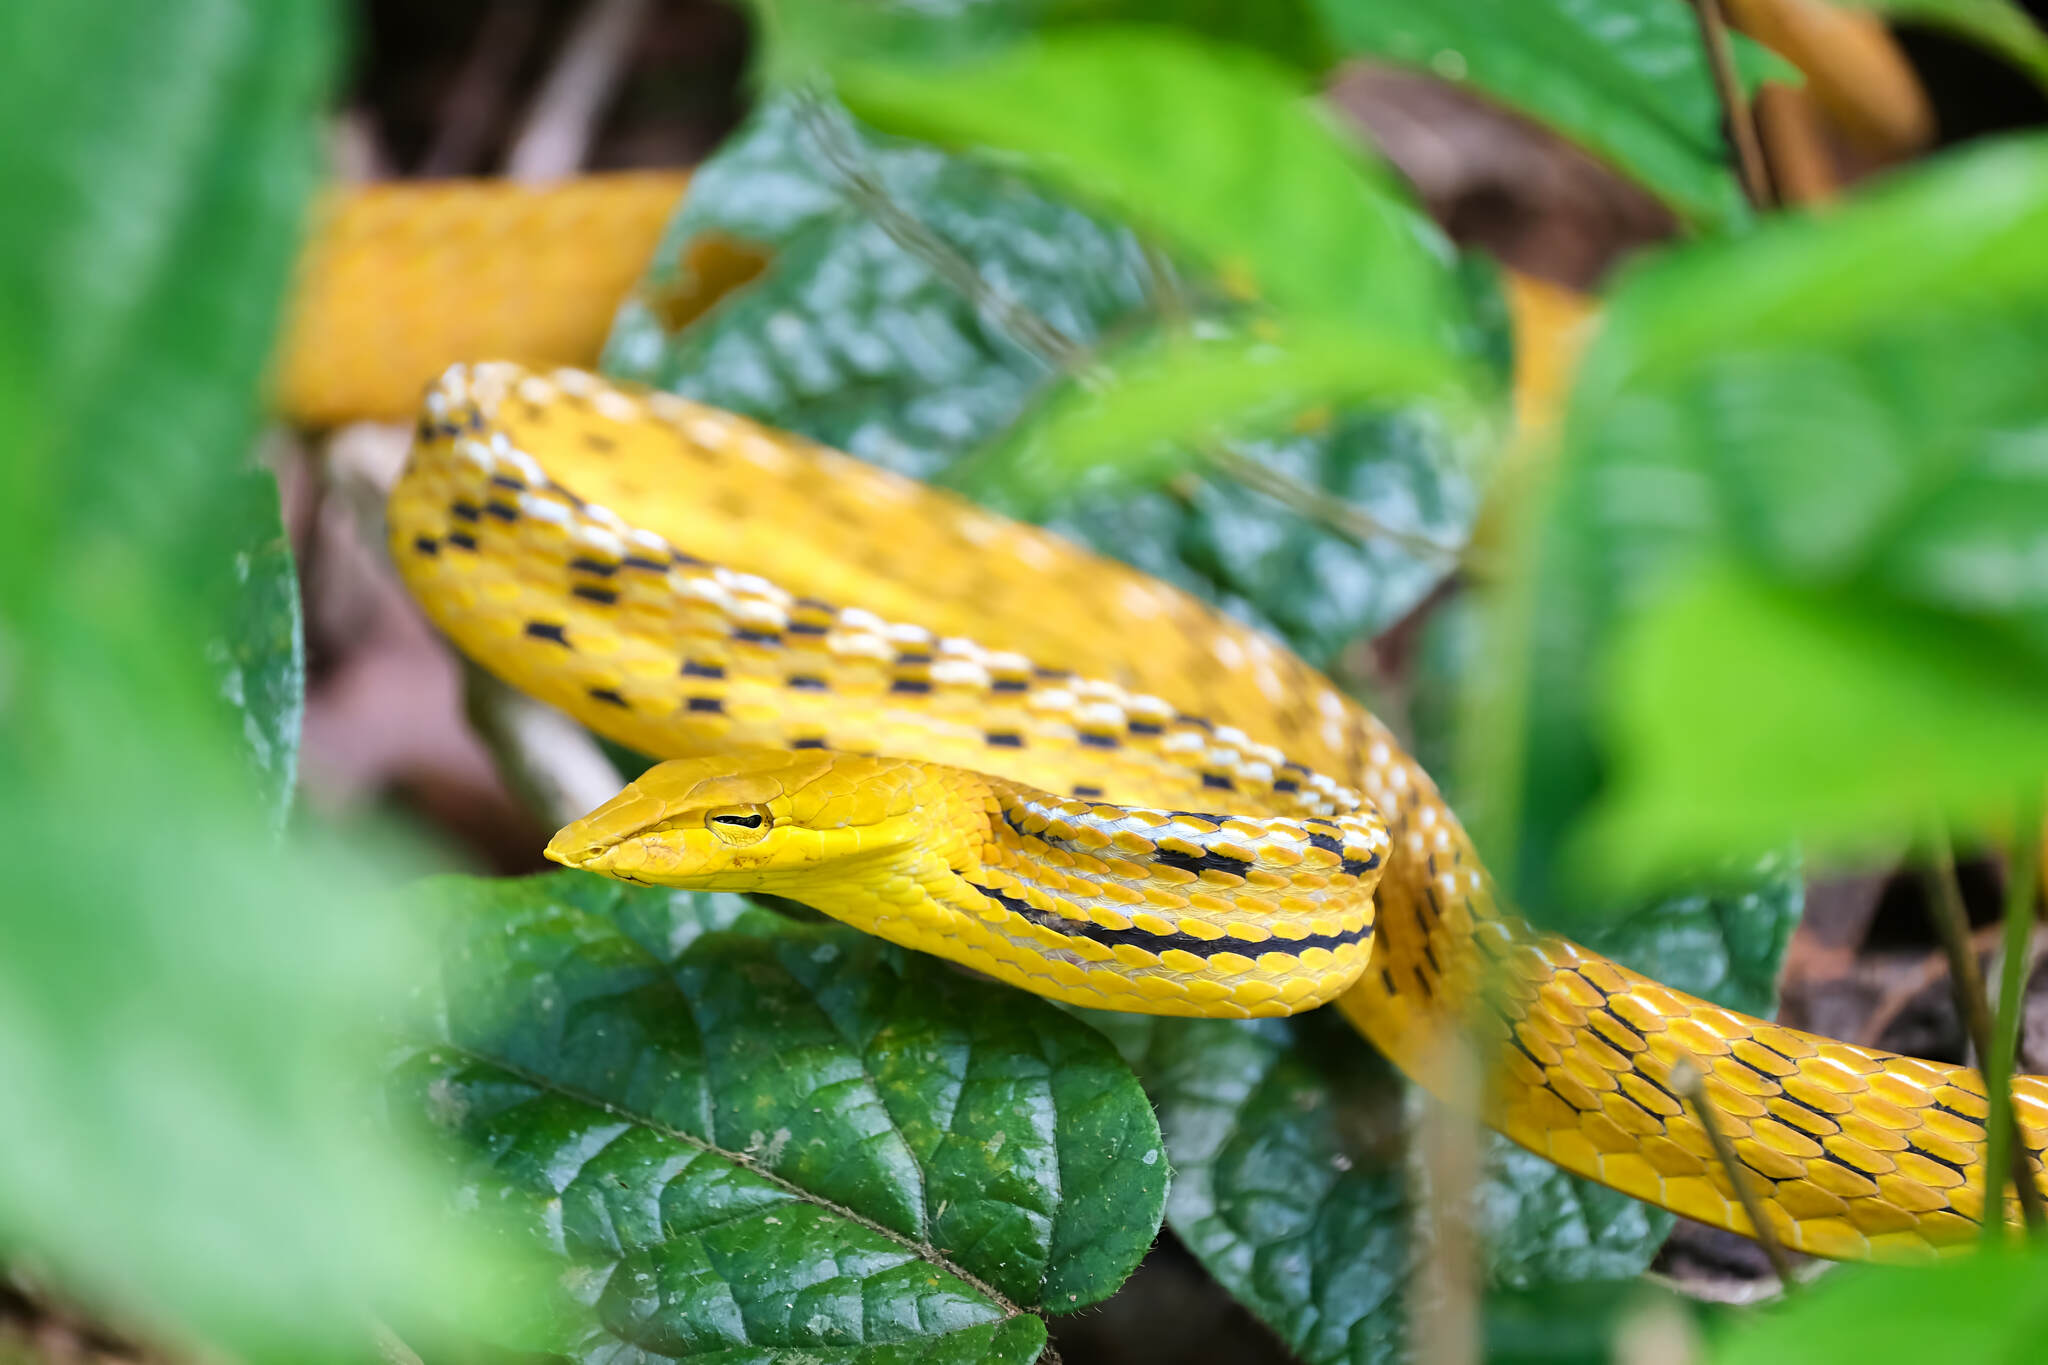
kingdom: Animalia
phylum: Chordata
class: Squamata
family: Colubridae
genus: Ahaetulla
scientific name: Ahaetulla prasina
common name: Oriental whip snake
